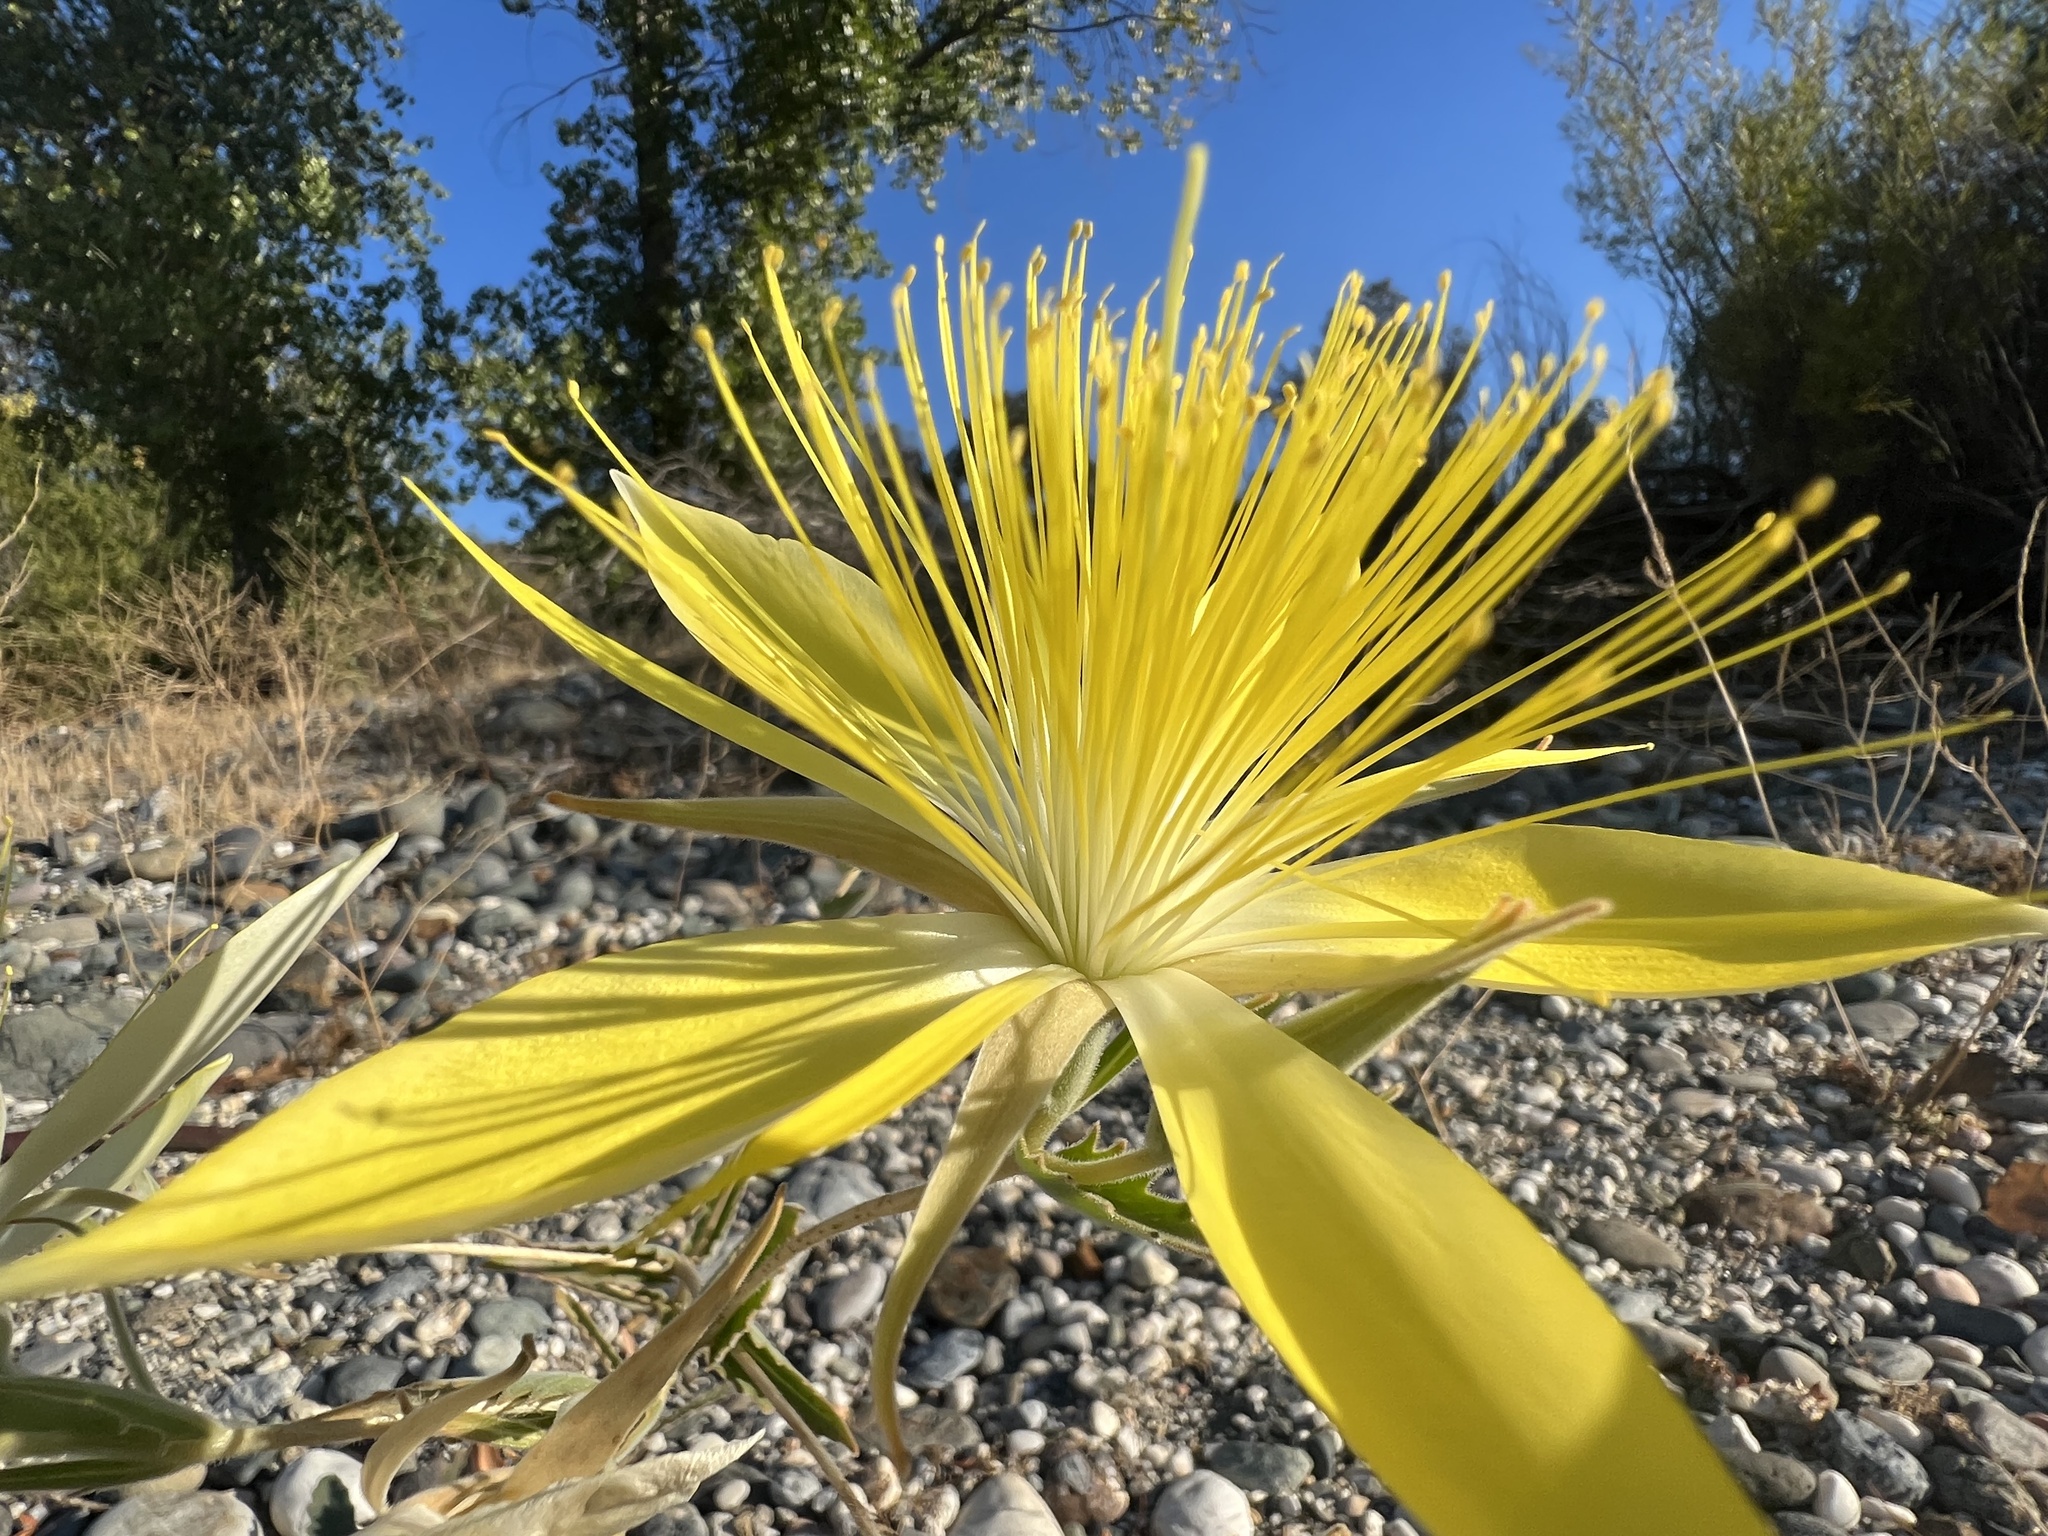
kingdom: Plantae
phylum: Tracheophyta
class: Magnoliopsida
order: Cornales
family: Loasaceae
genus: Mentzelia
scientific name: Mentzelia laevicaulis
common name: Smooth-stem blazingstar
